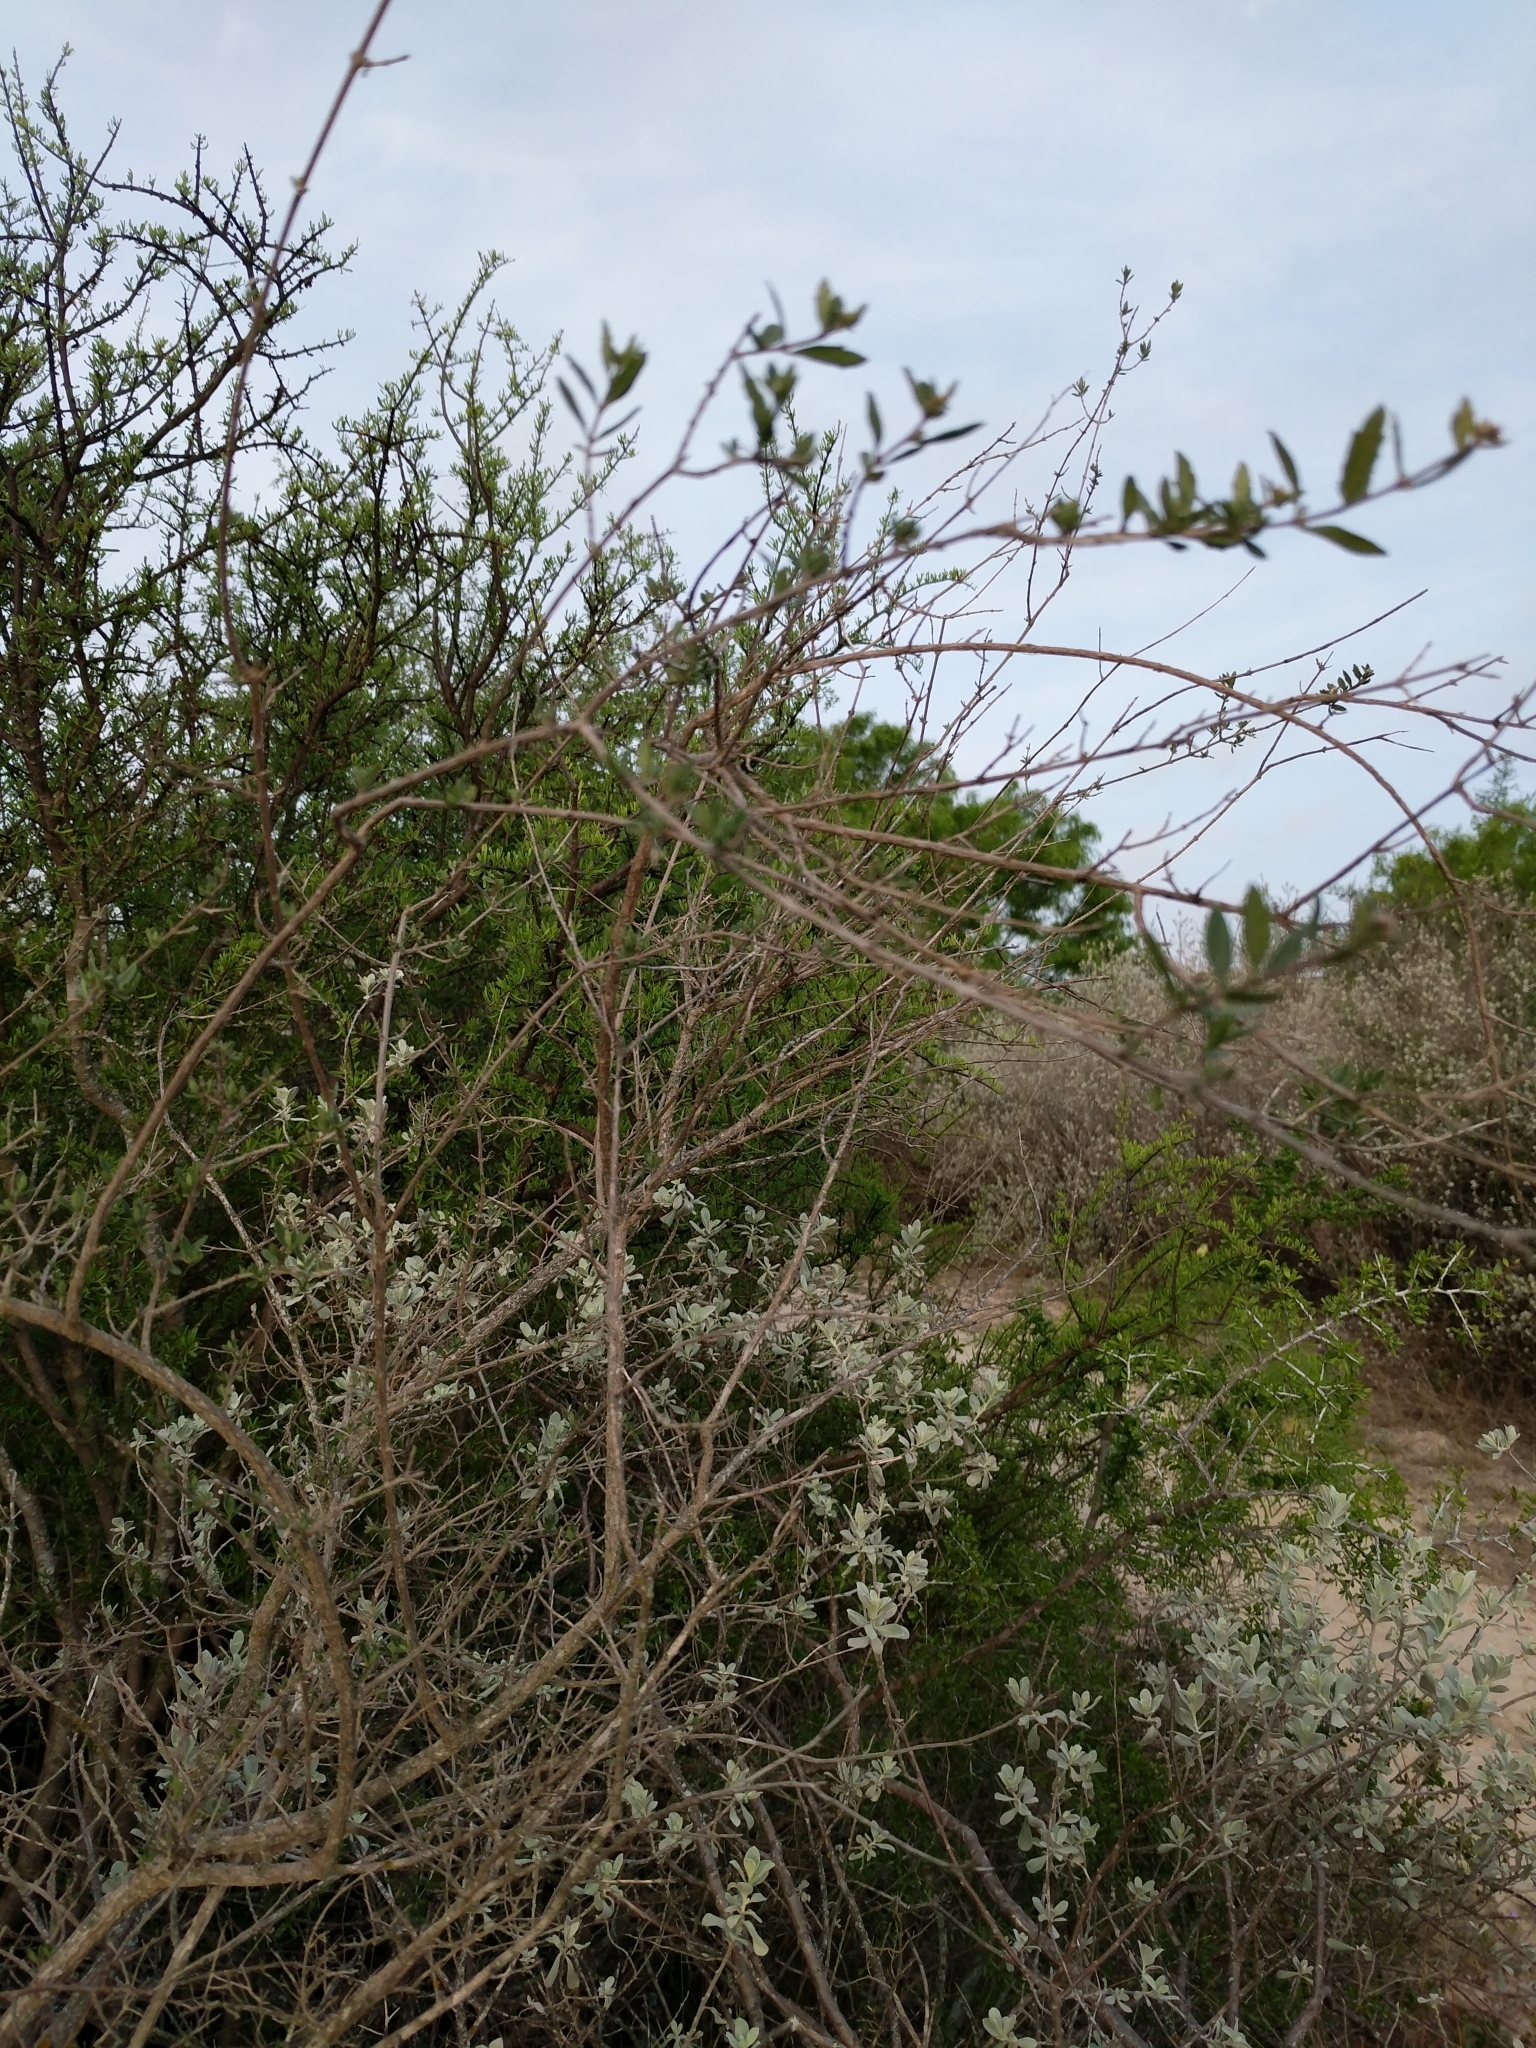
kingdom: Plantae
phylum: Tracheophyta
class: Magnoliopsida
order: Lamiales
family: Verbenaceae
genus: Aloysia
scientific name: Aloysia gratissima
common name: Common bee-brush
